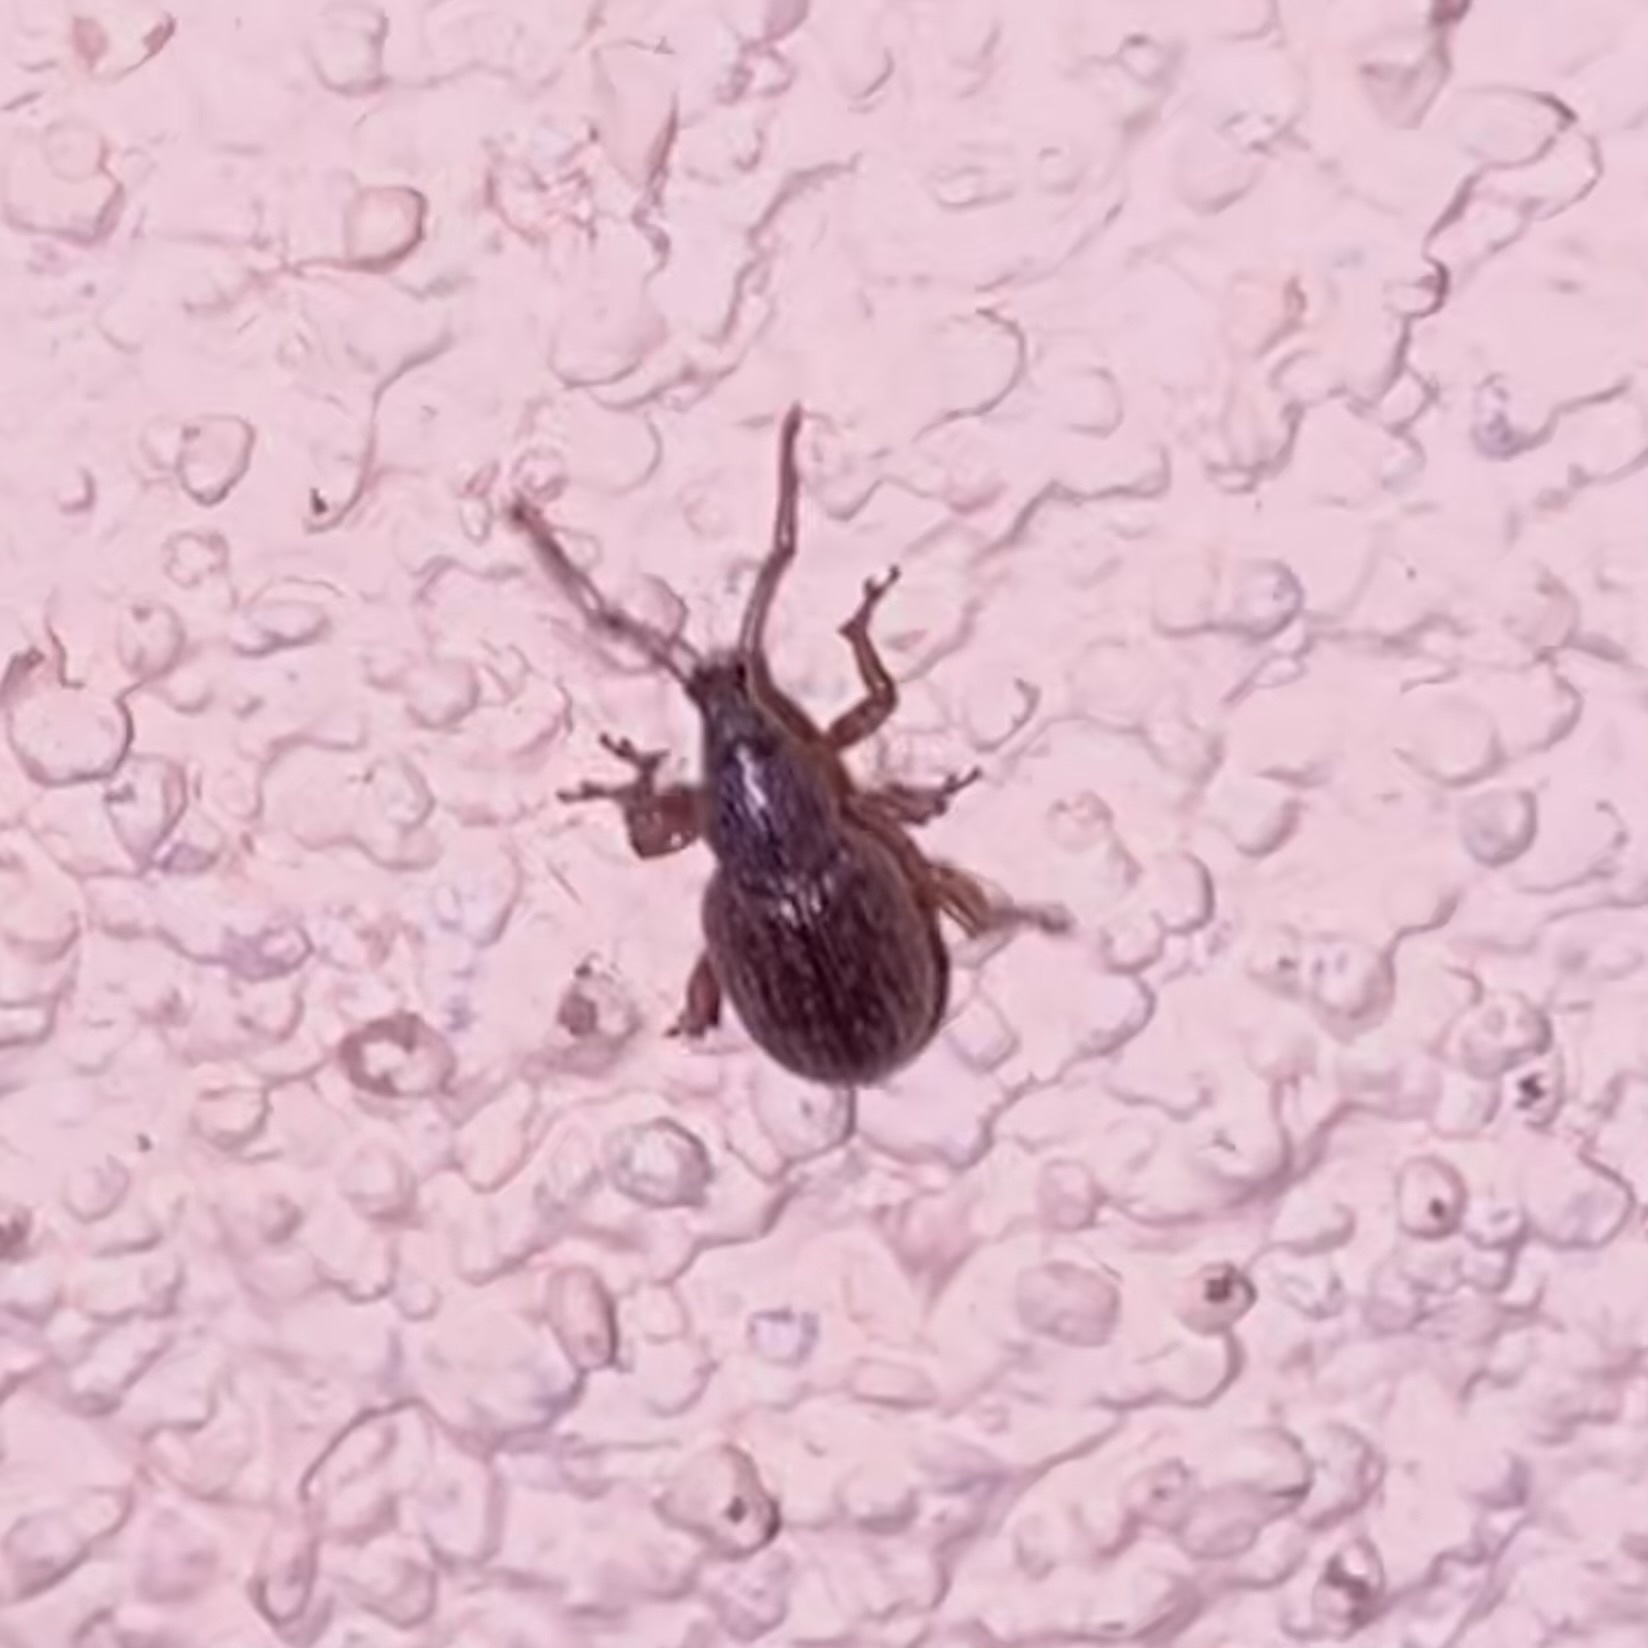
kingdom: Animalia
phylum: Arthropoda
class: Insecta
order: Coleoptera
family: Curculionidae
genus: Otiorhynchus
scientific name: Otiorhynchus cribricollis
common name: Weevil
